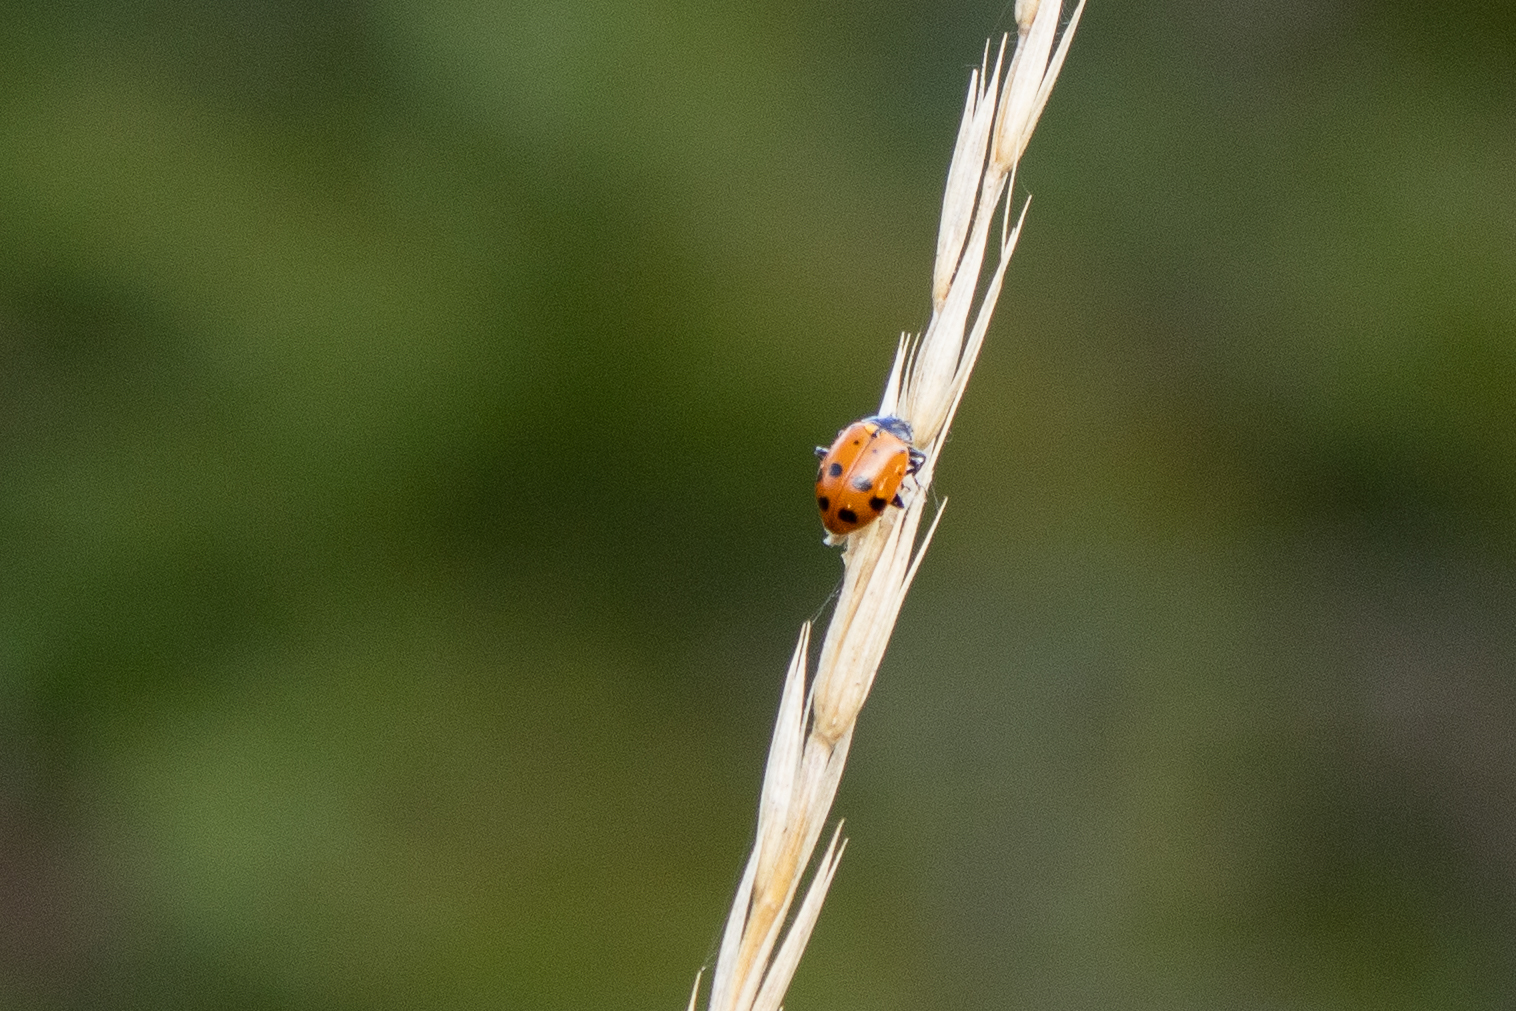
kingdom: Animalia
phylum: Arthropoda
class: Insecta
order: Coleoptera
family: Coccinellidae
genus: Hippodamia
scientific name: Hippodamia convergens
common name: Convergent lady beetle
